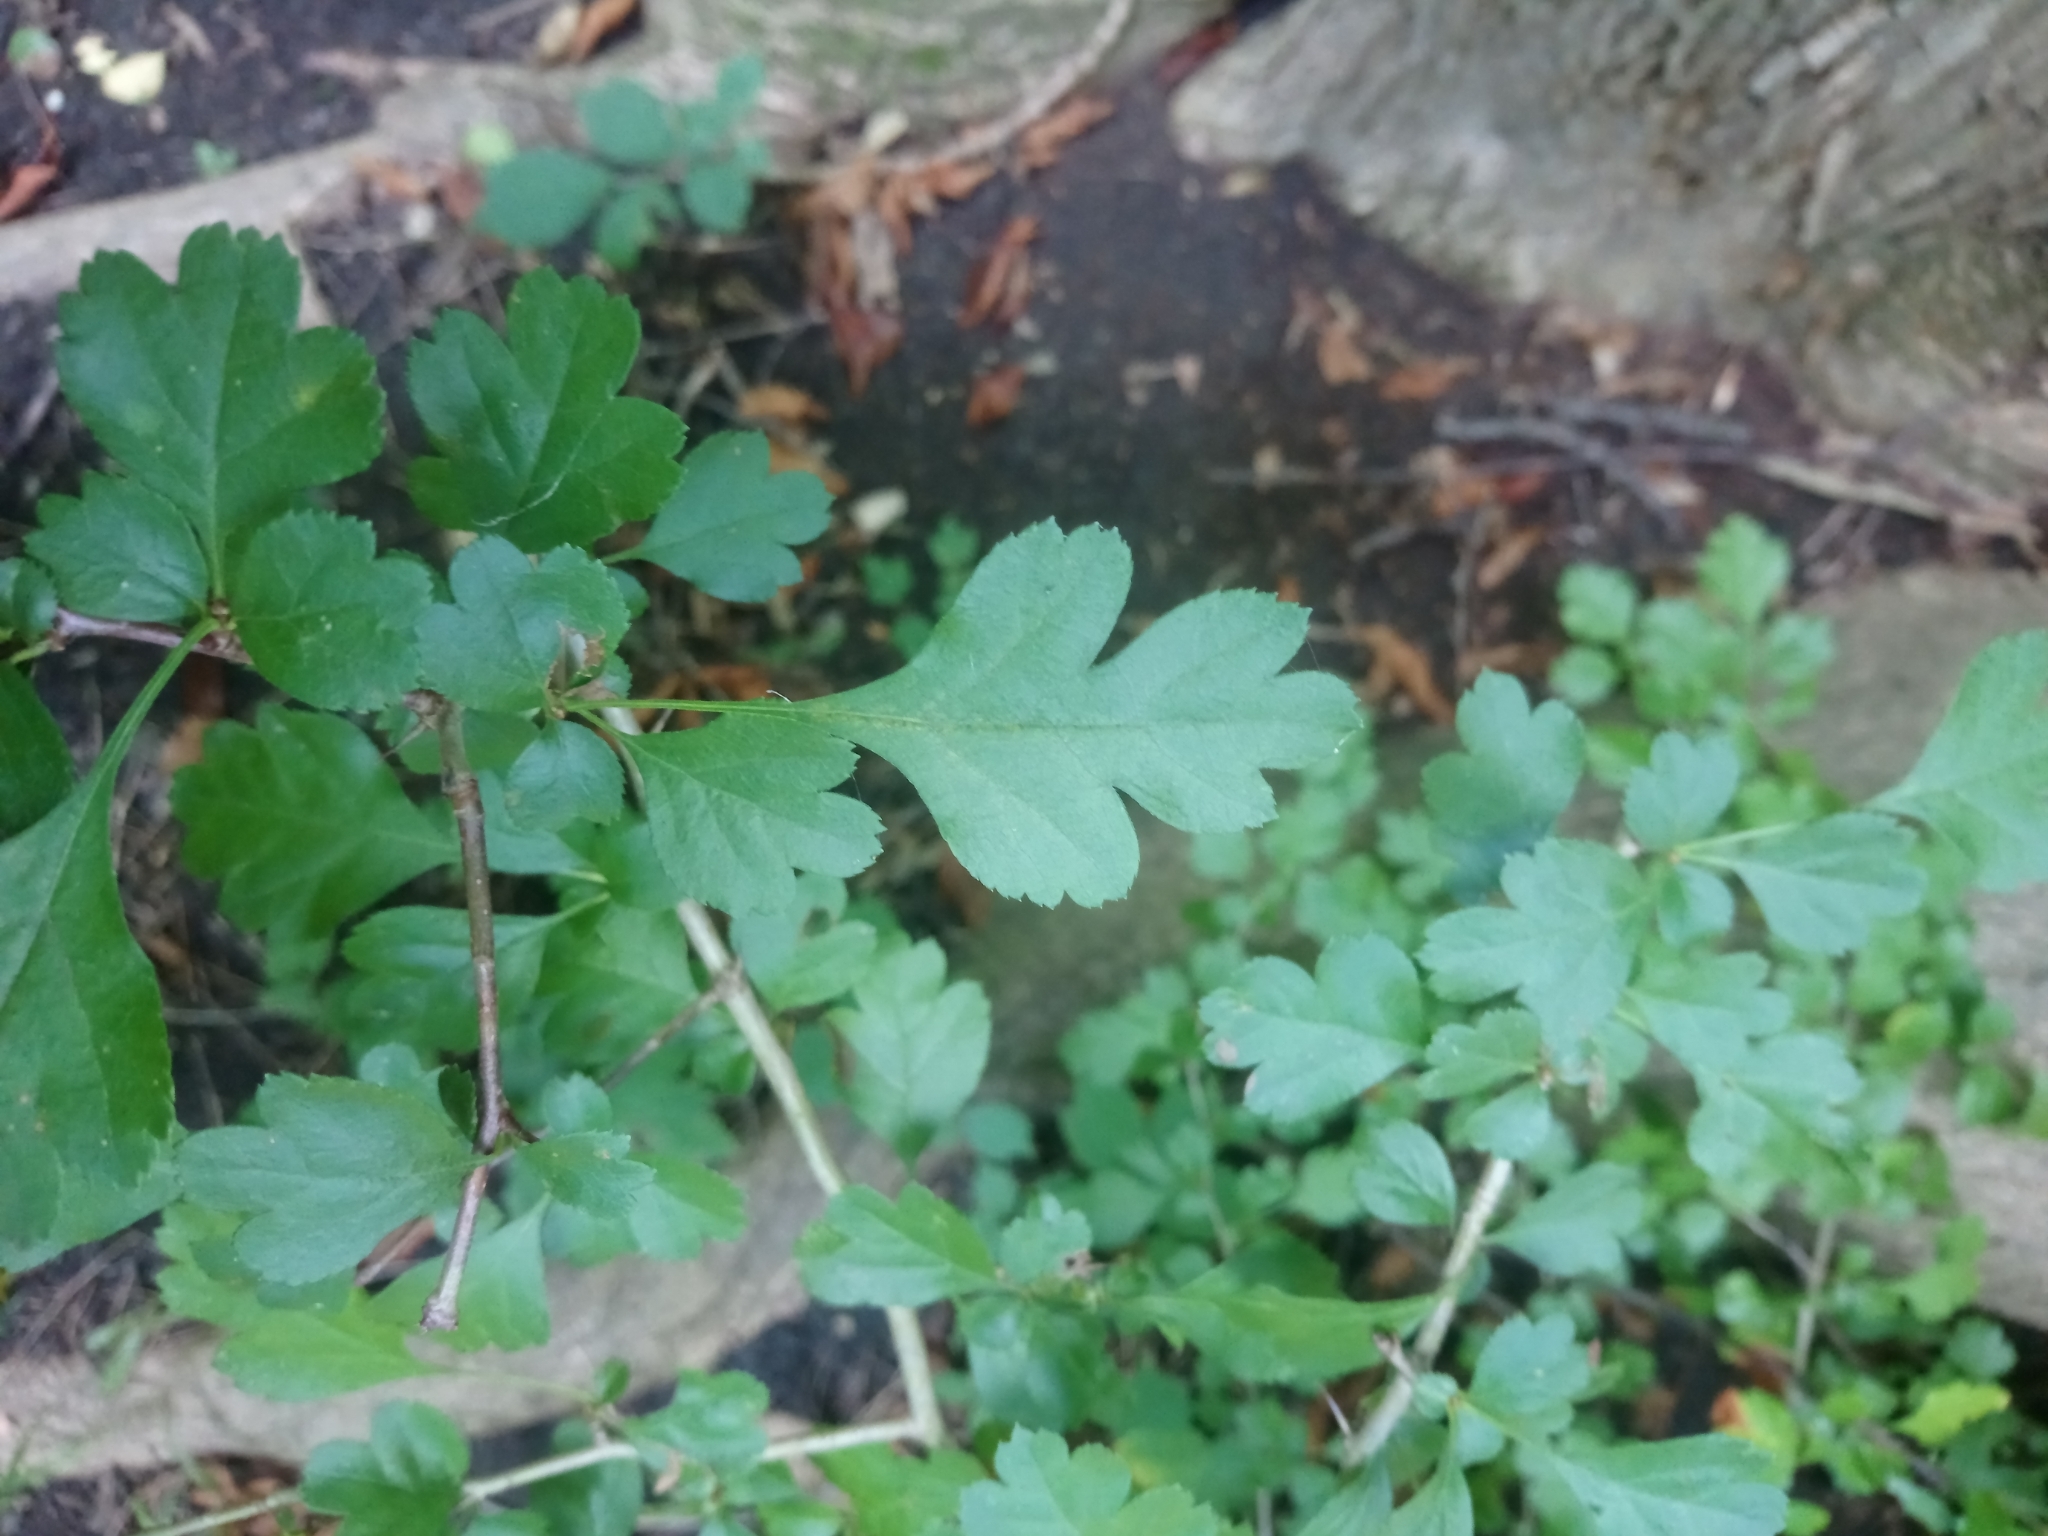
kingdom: Plantae
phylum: Tracheophyta
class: Magnoliopsida
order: Rosales
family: Rosaceae
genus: Crataegus
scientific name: Crataegus monogyna
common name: Hawthorn
